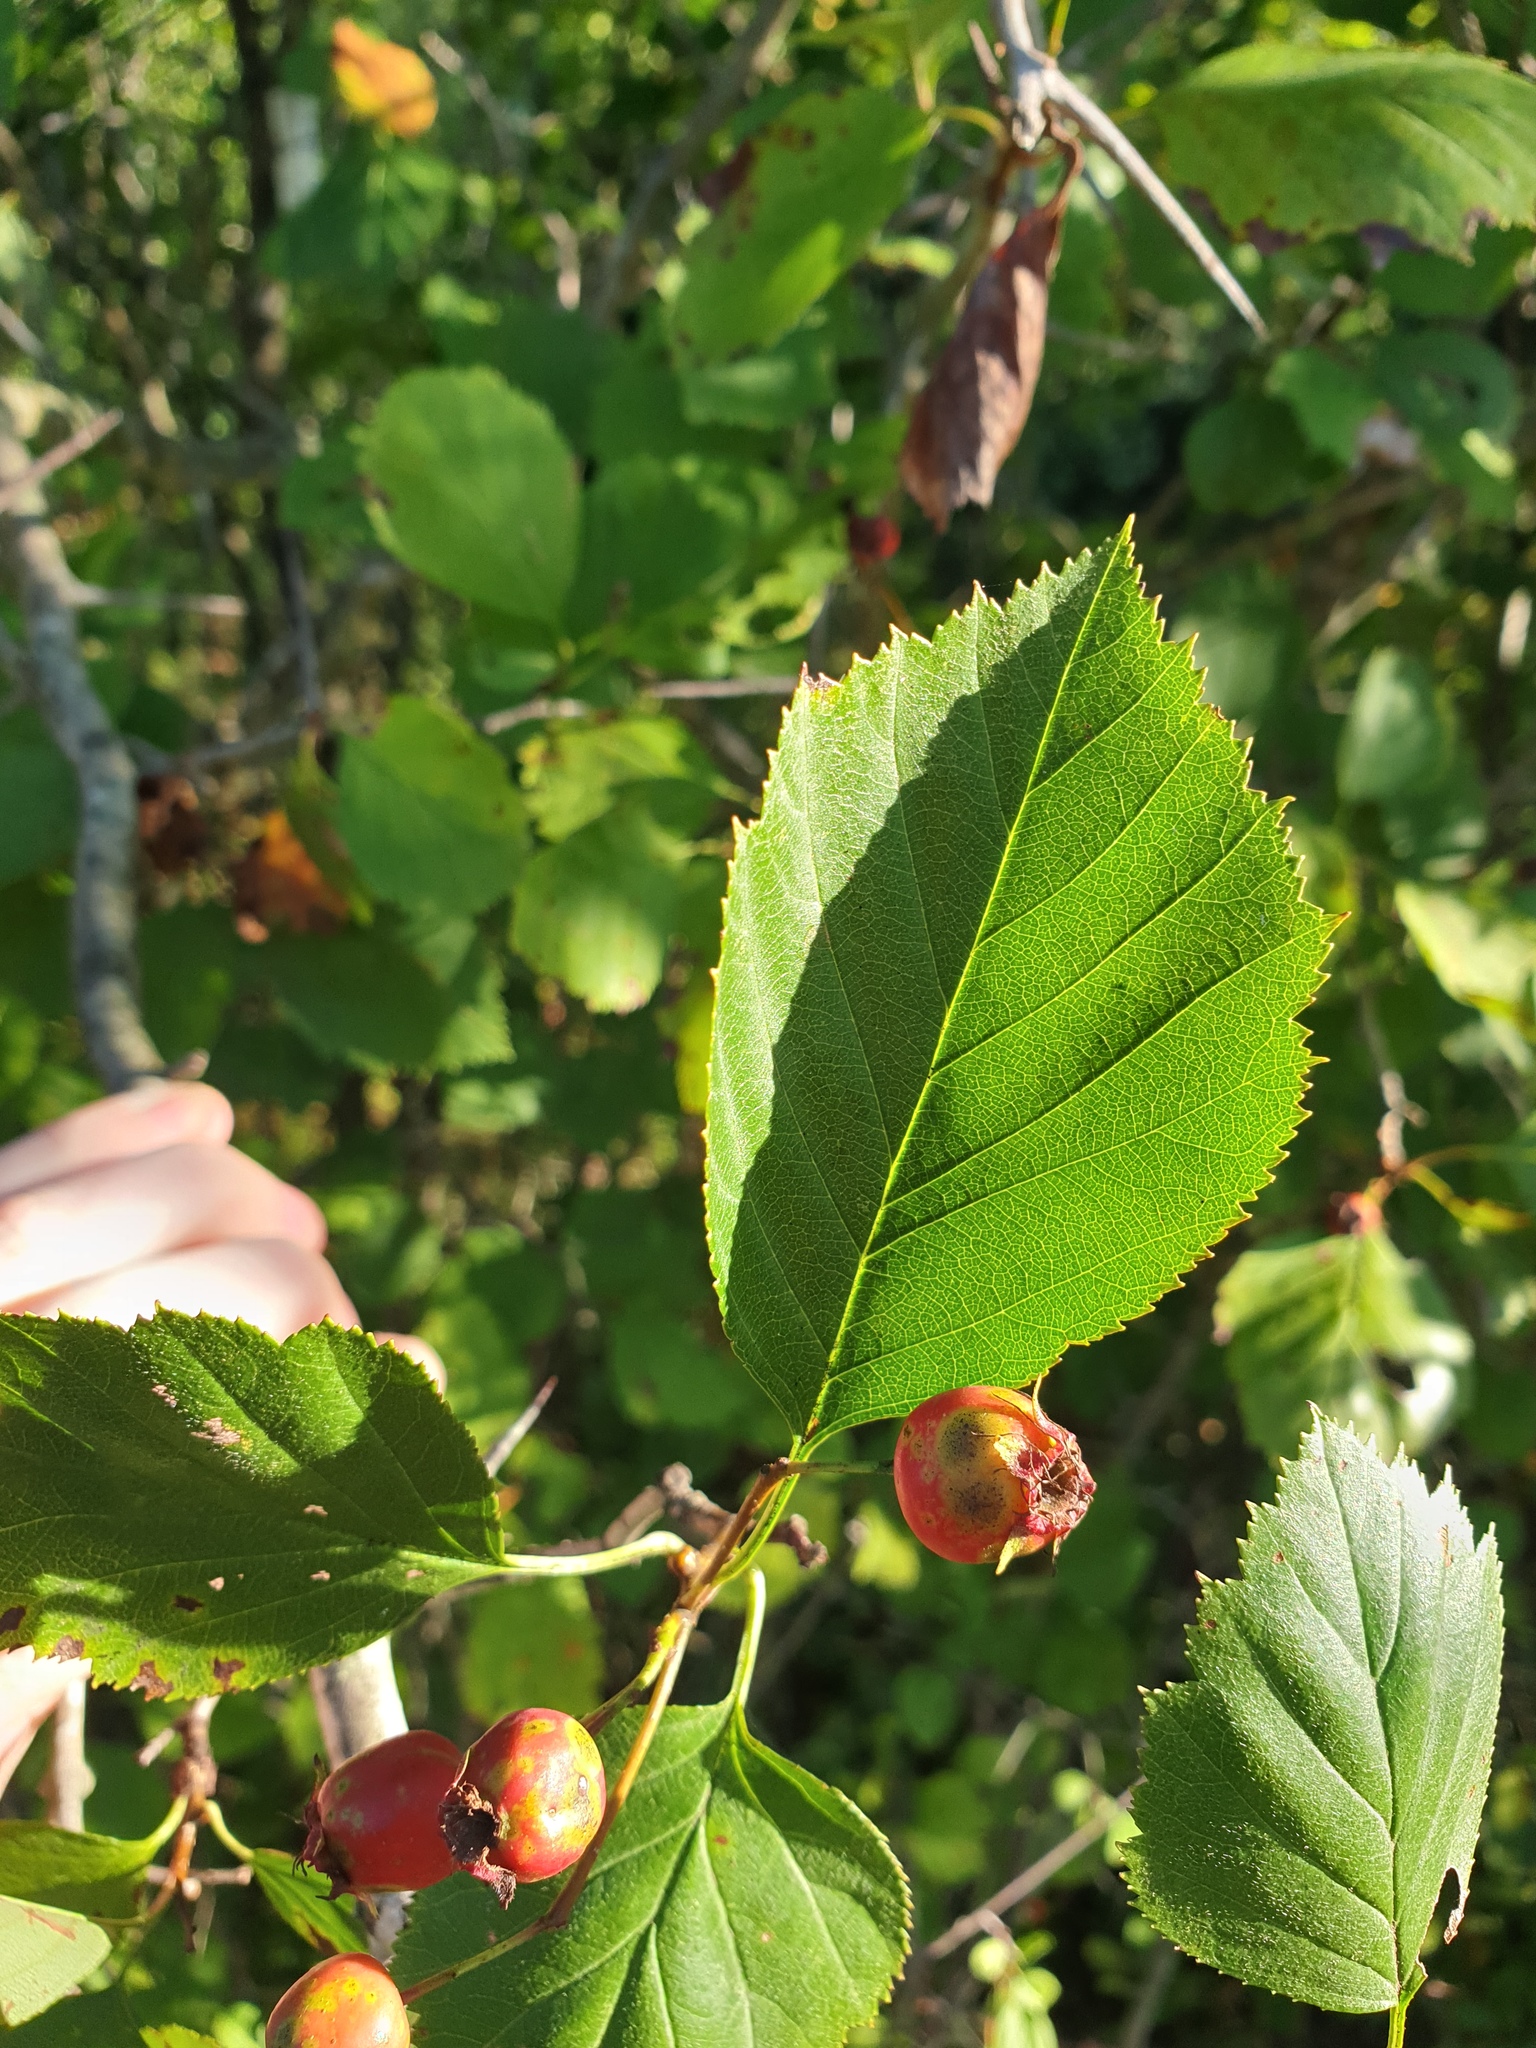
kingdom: Plantae
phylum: Tracheophyta
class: Magnoliopsida
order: Rosales
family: Rosaceae
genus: Crataegus
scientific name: Crataegus scabrida
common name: Rough hawthorn
